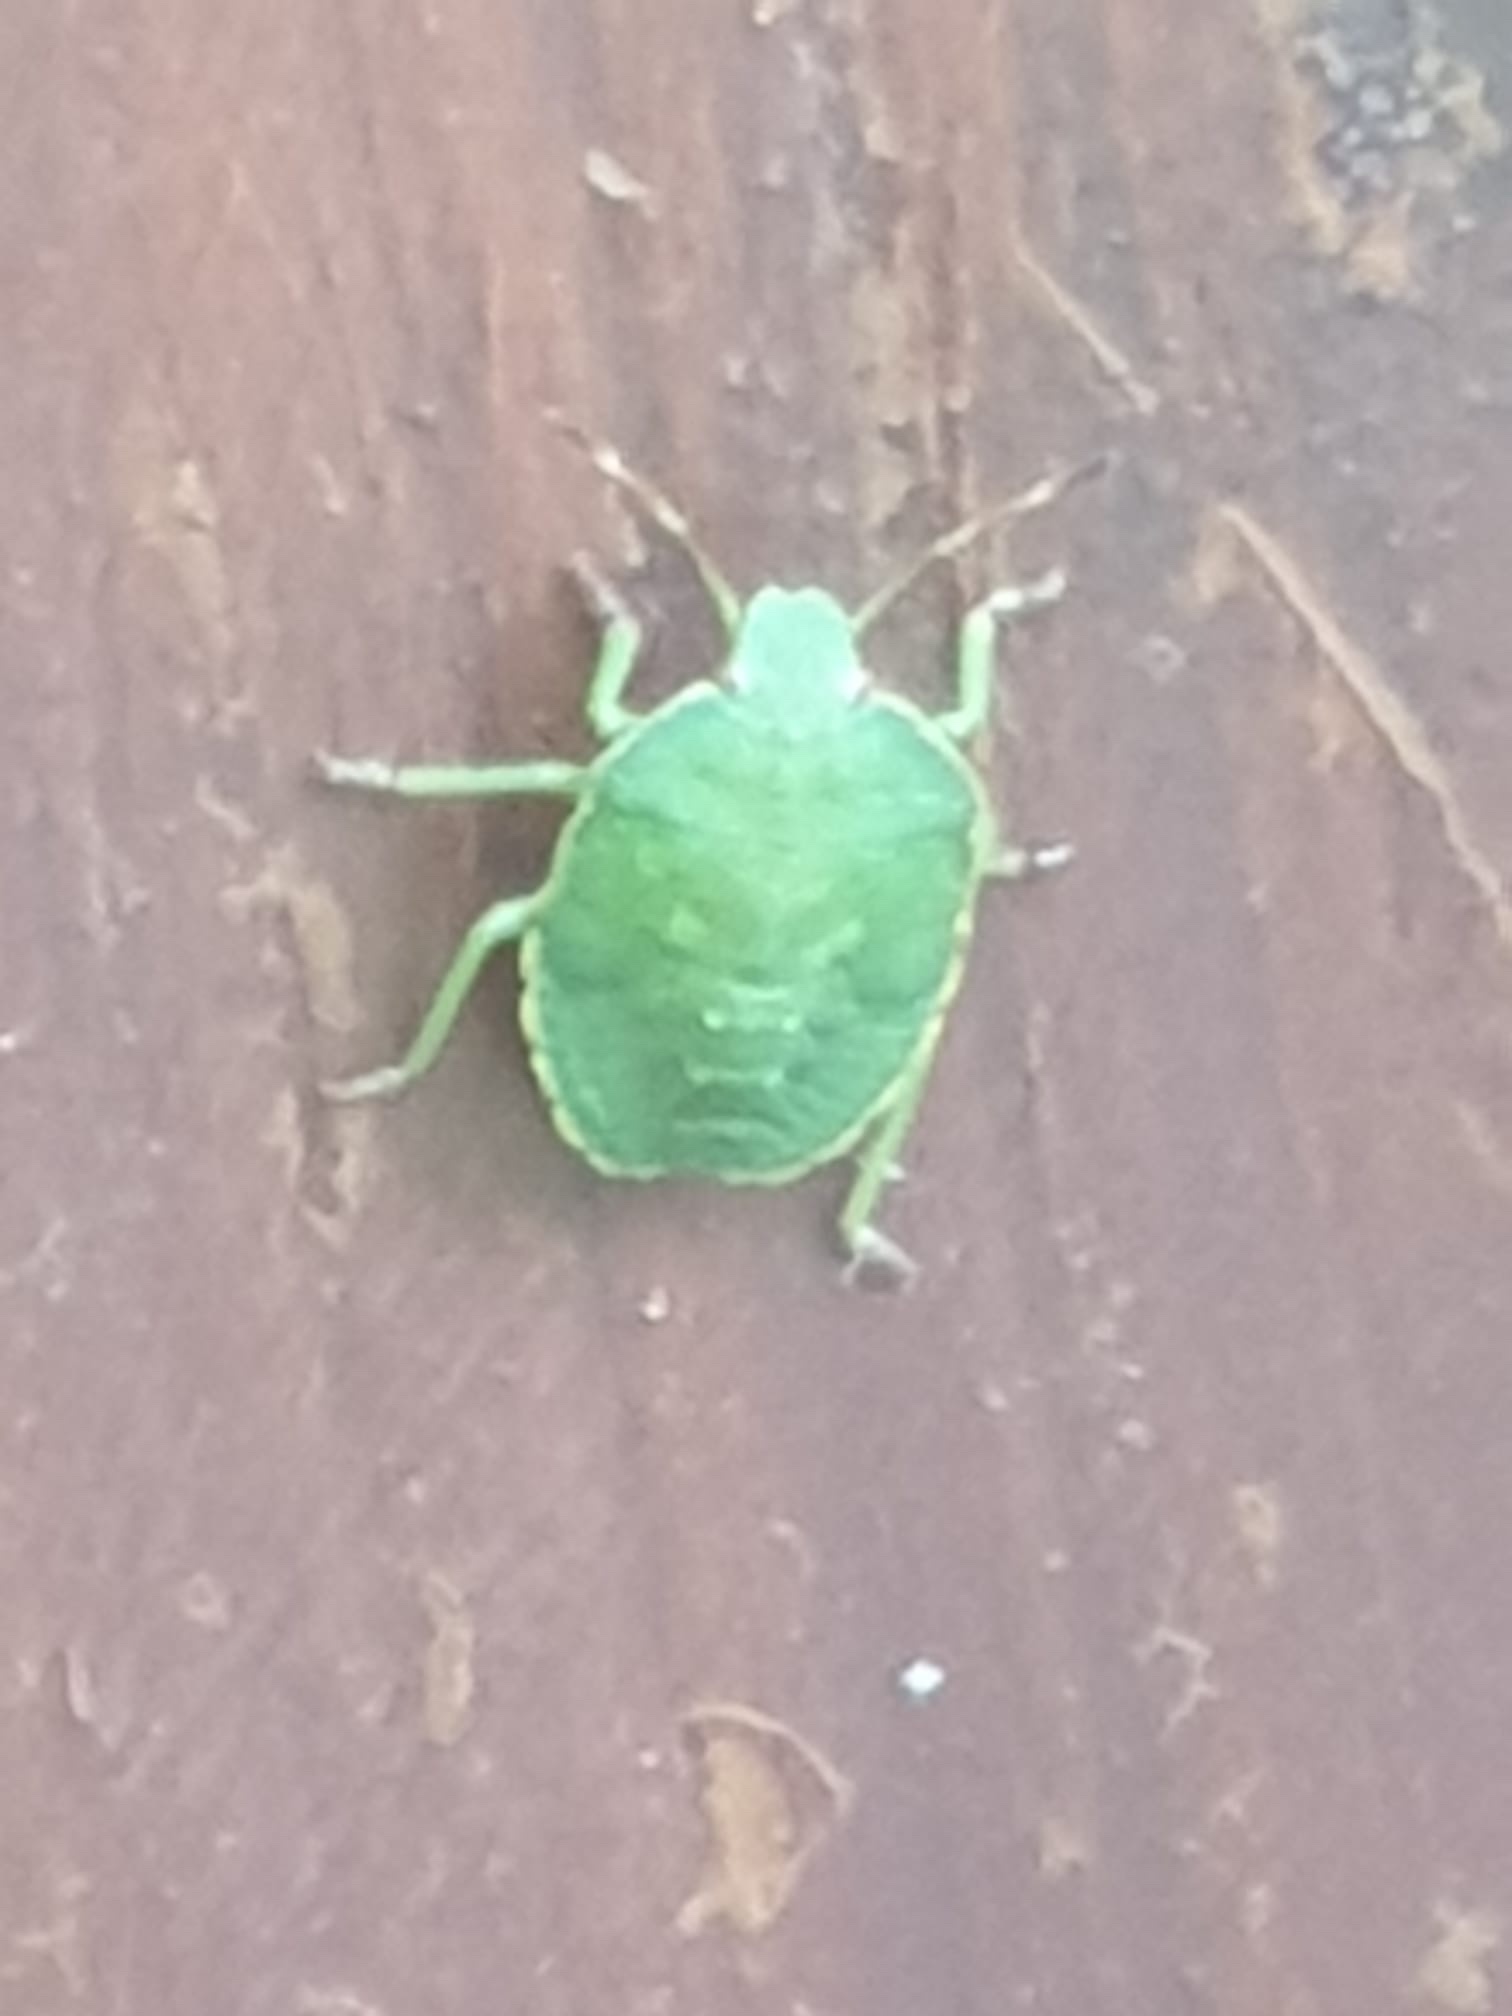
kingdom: Animalia
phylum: Arthropoda
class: Insecta
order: Hemiptera
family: Pentatomidae
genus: Palomena
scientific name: Palomena prasina
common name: Green shieldbug
